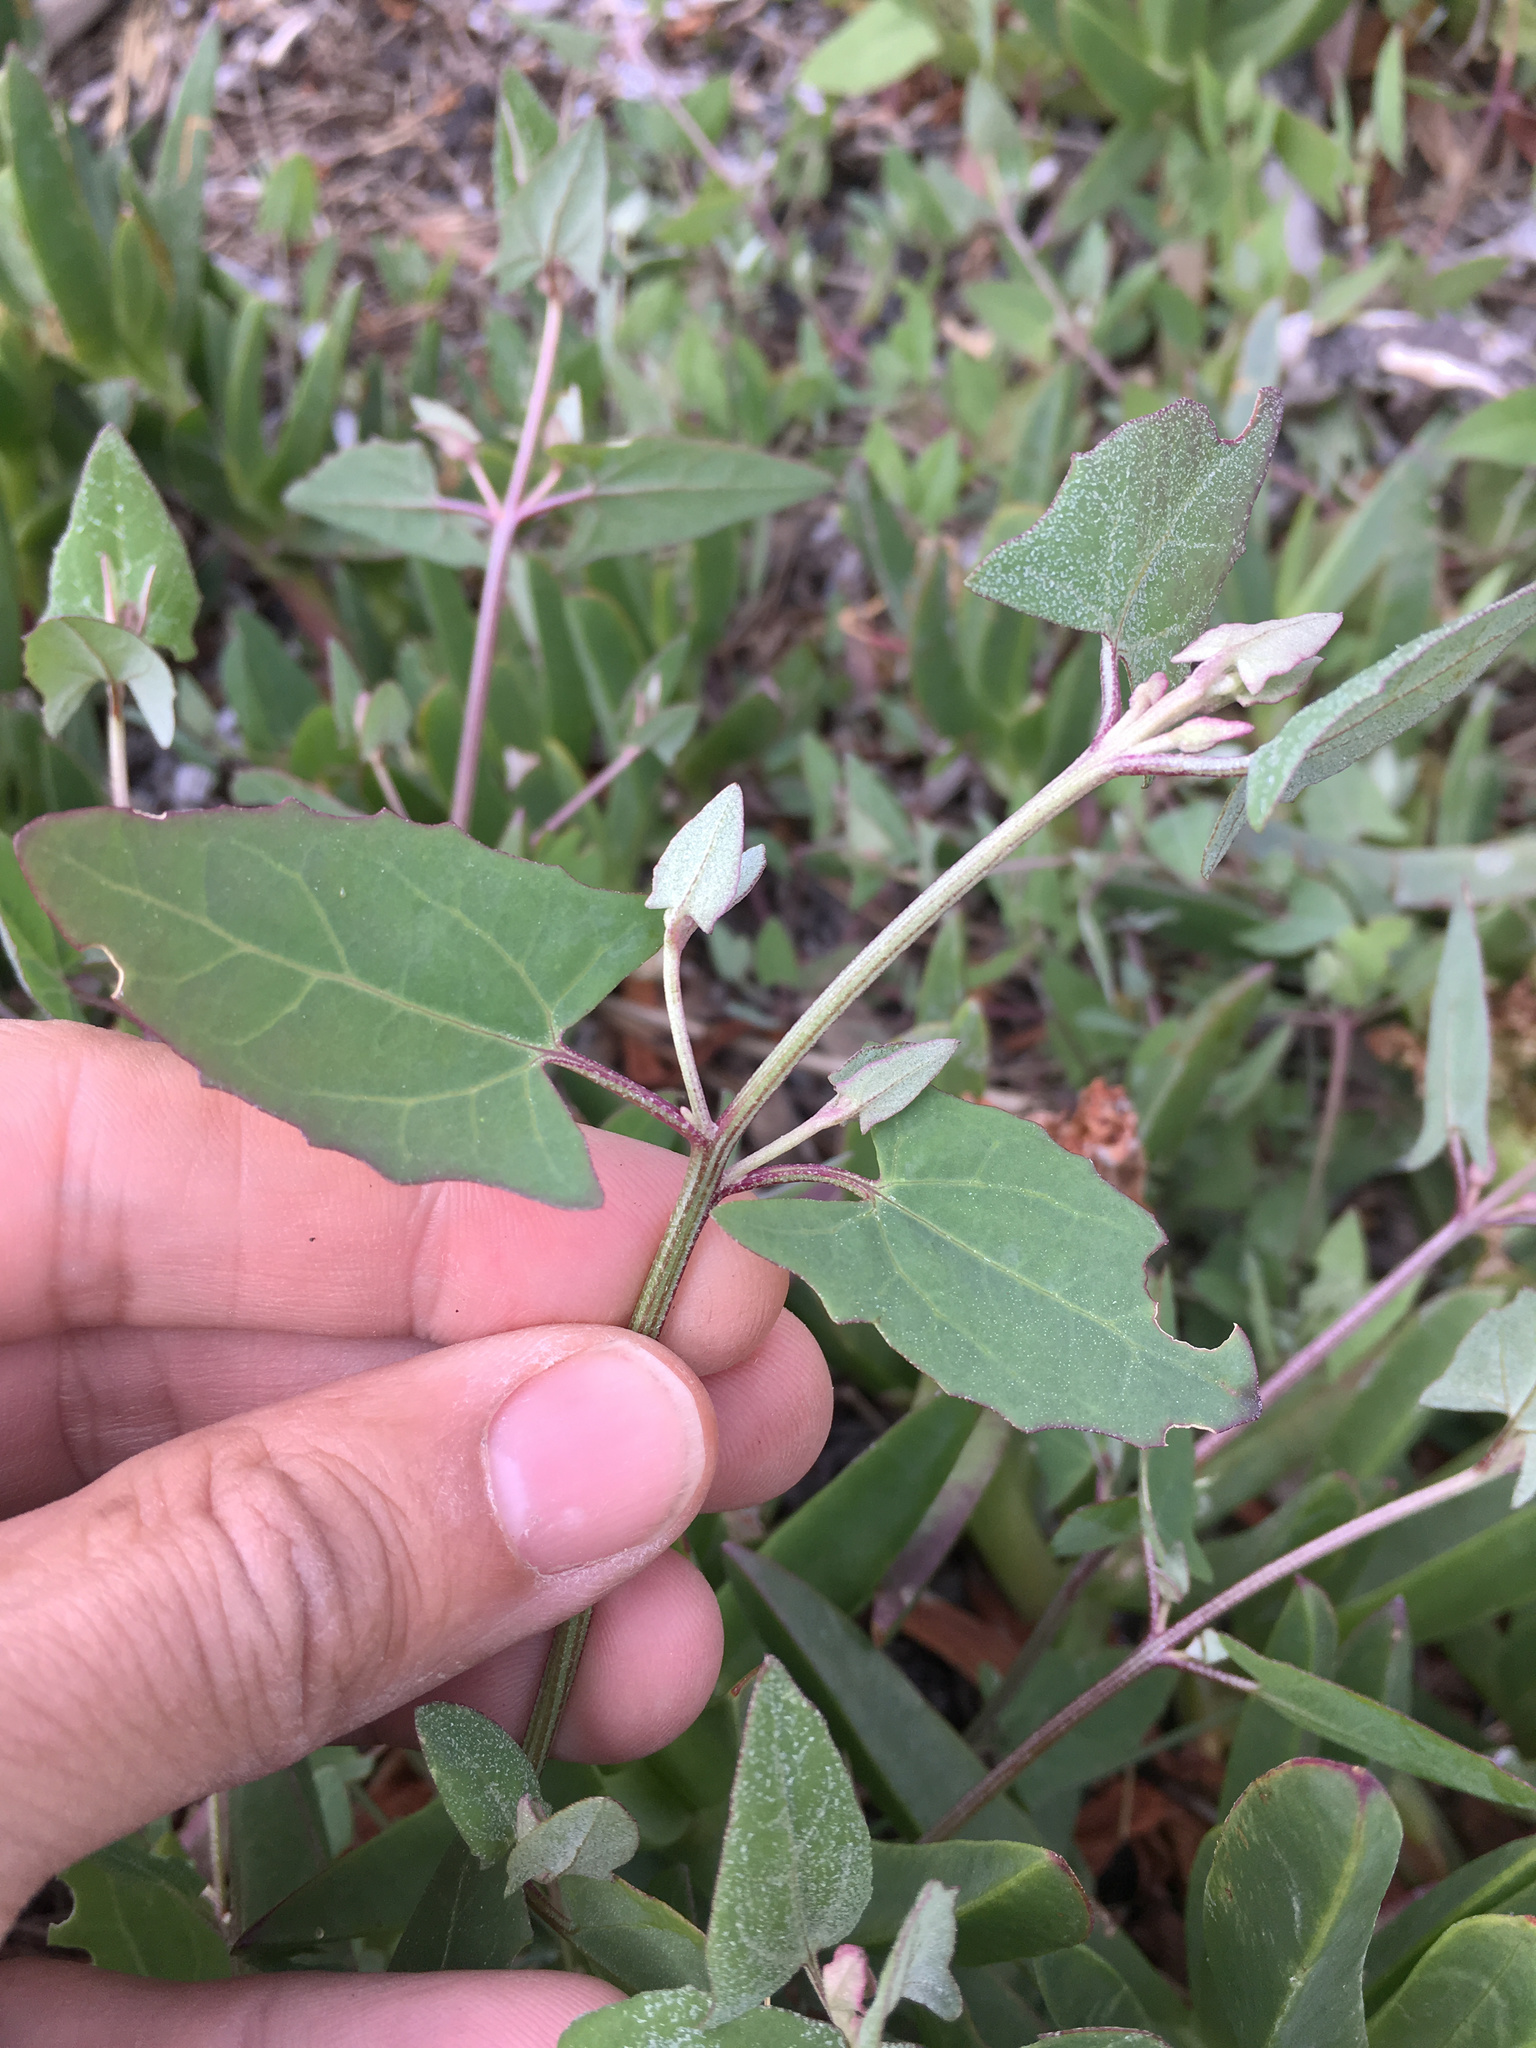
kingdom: Plantae
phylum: Tracheophyta
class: Magnoliopsida
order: Caryophyllales
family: Amaranthaceae
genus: Atriplex
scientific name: Atriplex prostrata
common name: Spear-leaved orache
